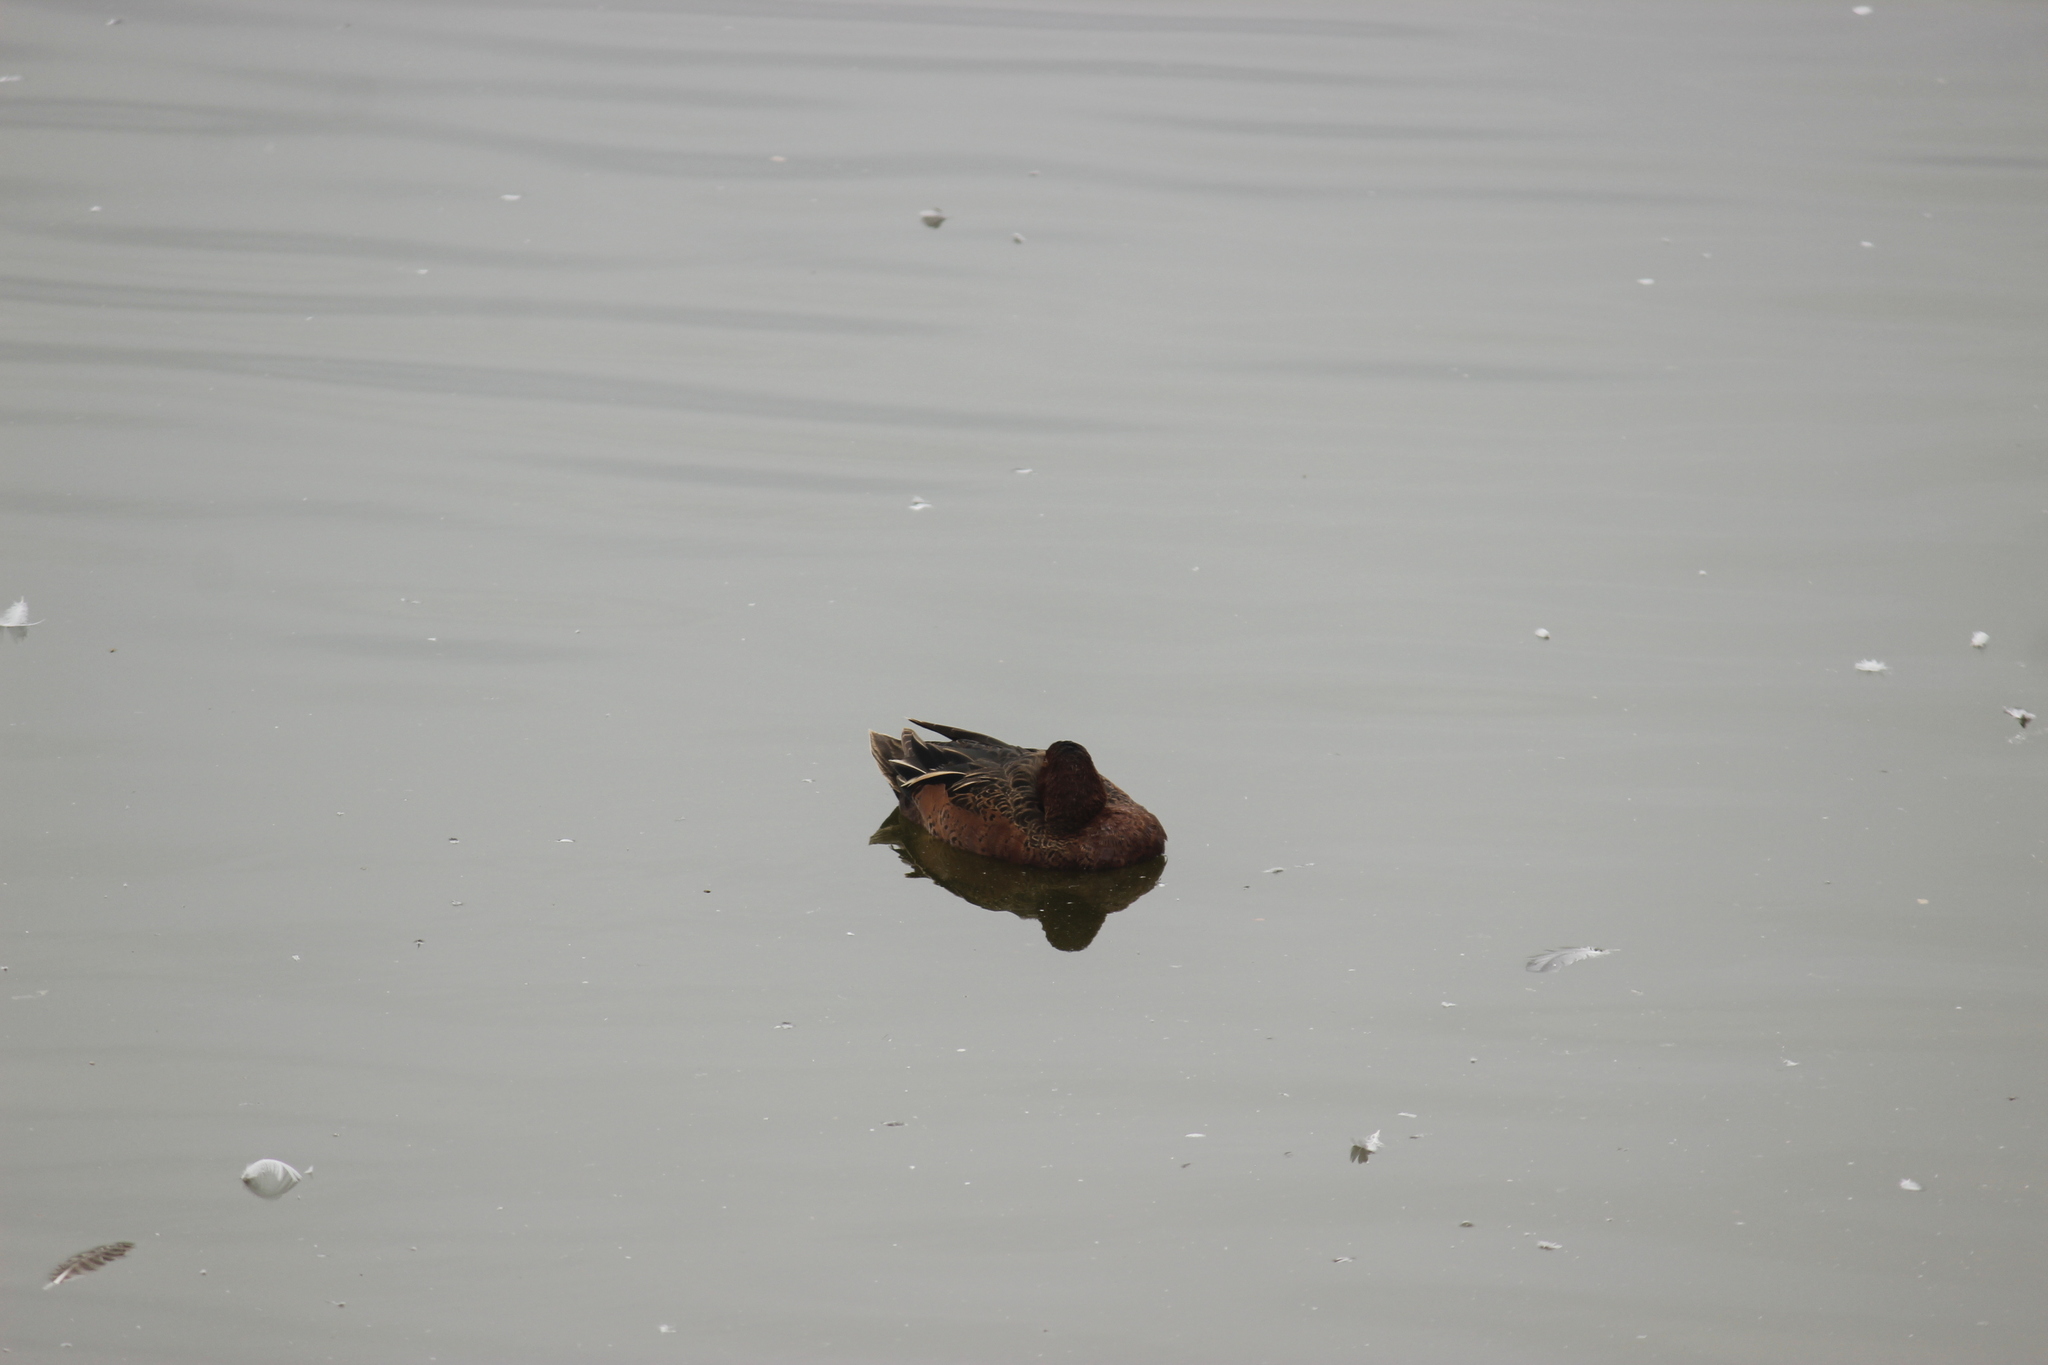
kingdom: Animalia
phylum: Chordata
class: Aves
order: Anseriformes
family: Anatidae
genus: Spatula
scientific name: Spatula cyanoptera
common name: Cinnamon teal
